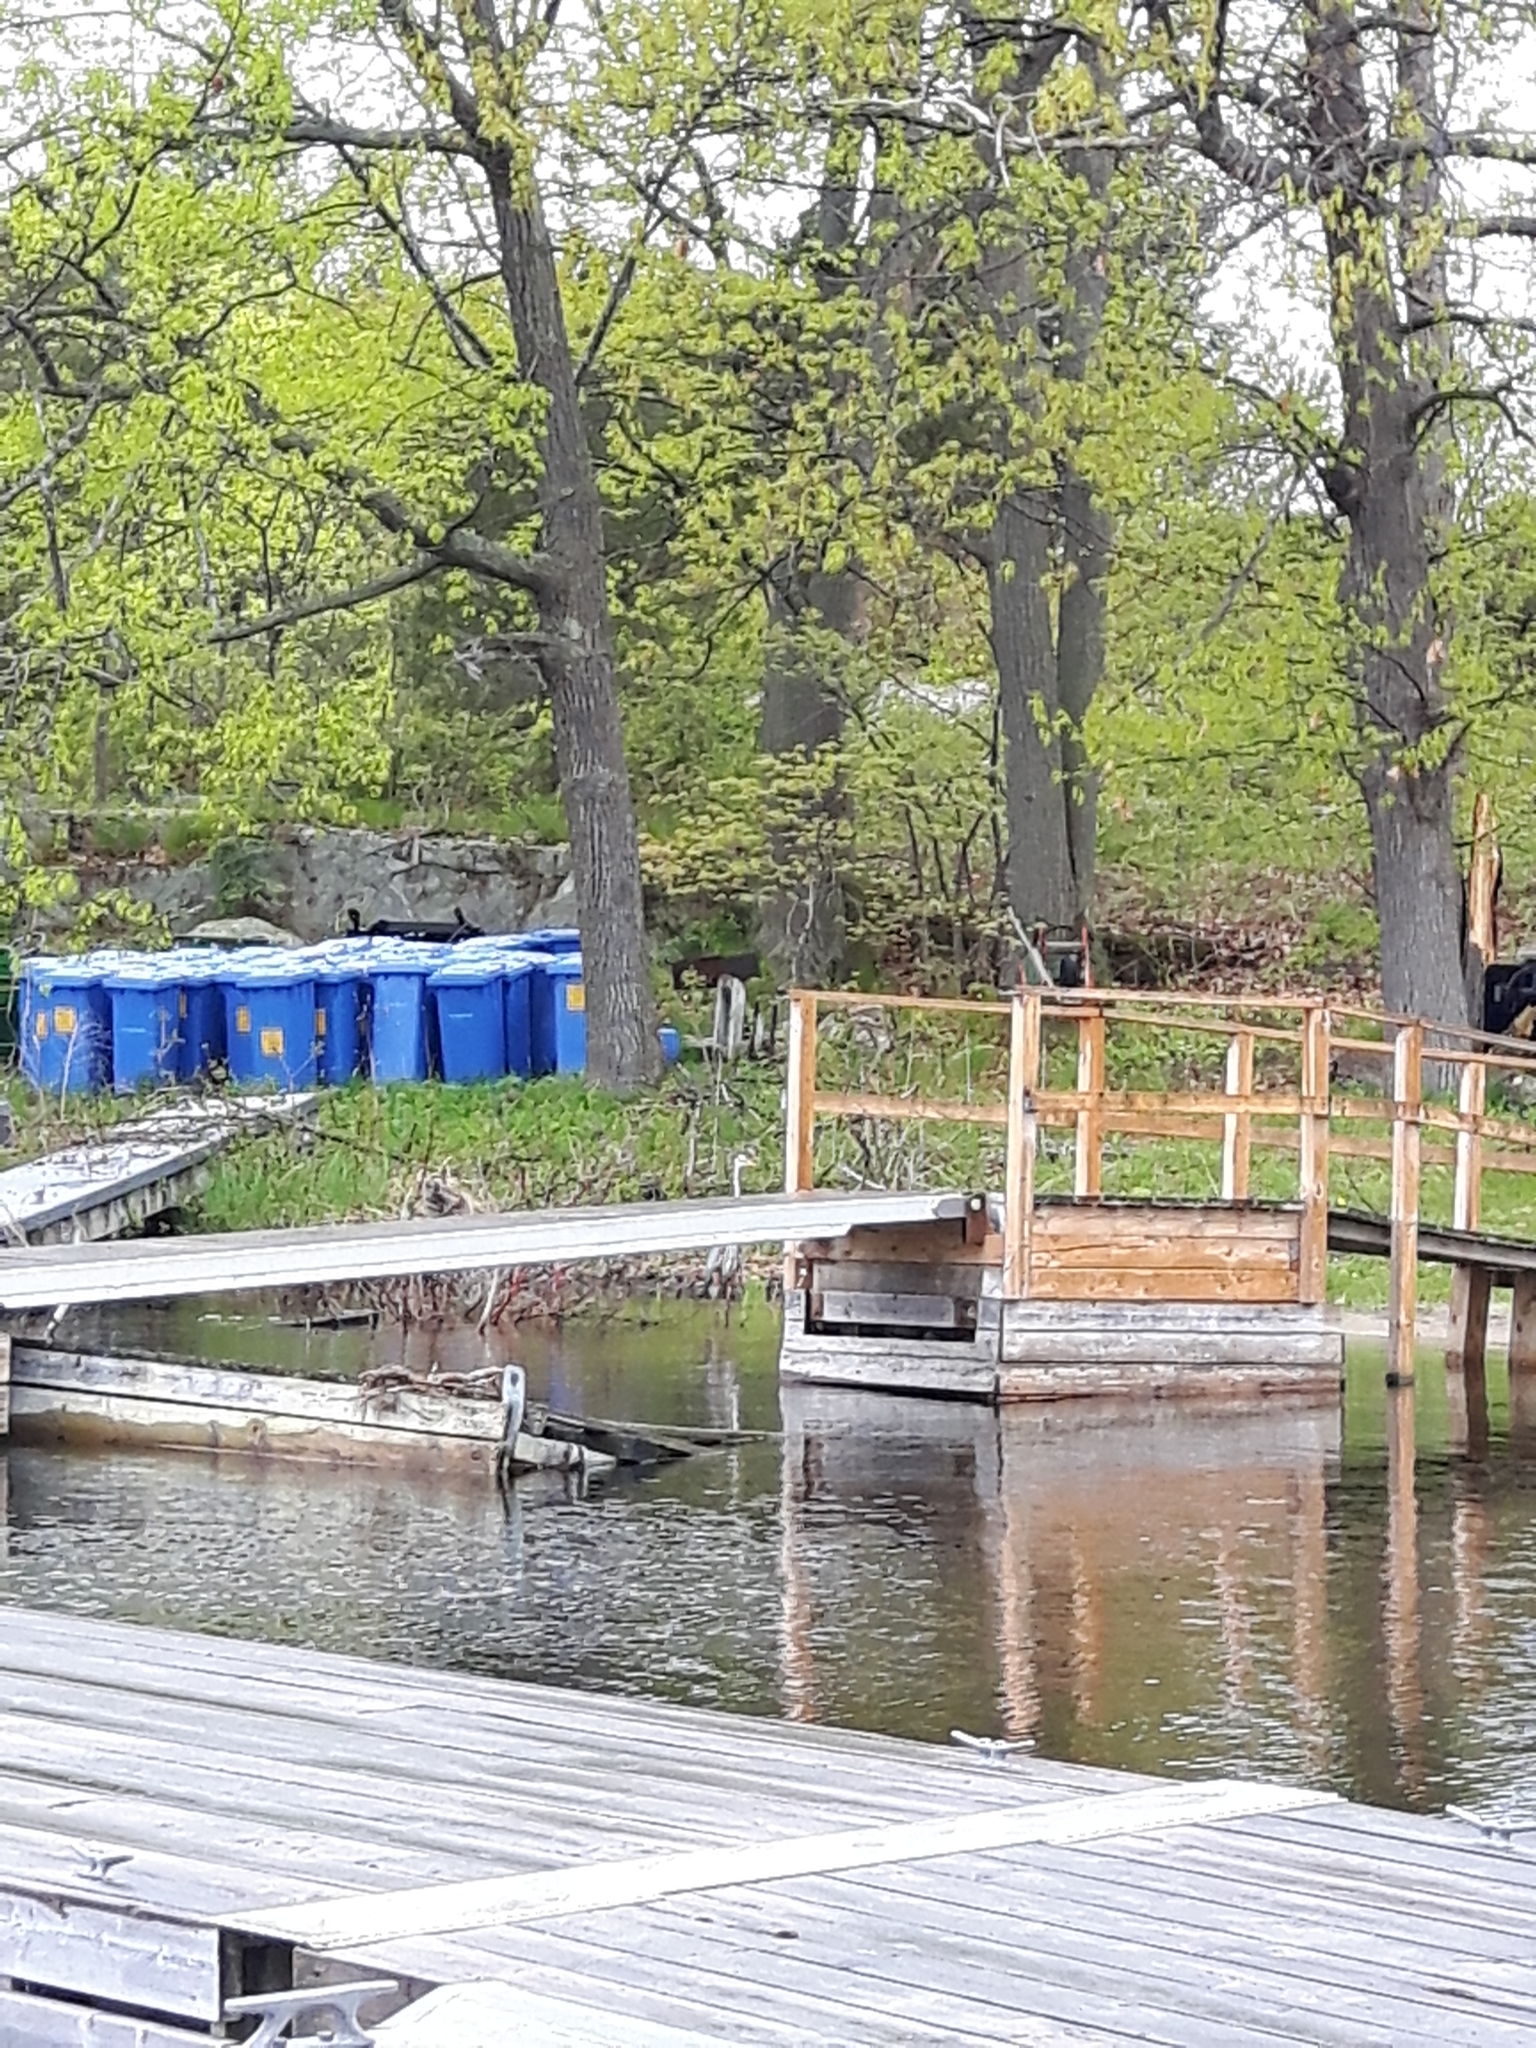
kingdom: Animalia
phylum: Chordata
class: Aves
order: Pelecaniformes
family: Ardeidae
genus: Ardea
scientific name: Ardea herodias
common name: Great blue heron
